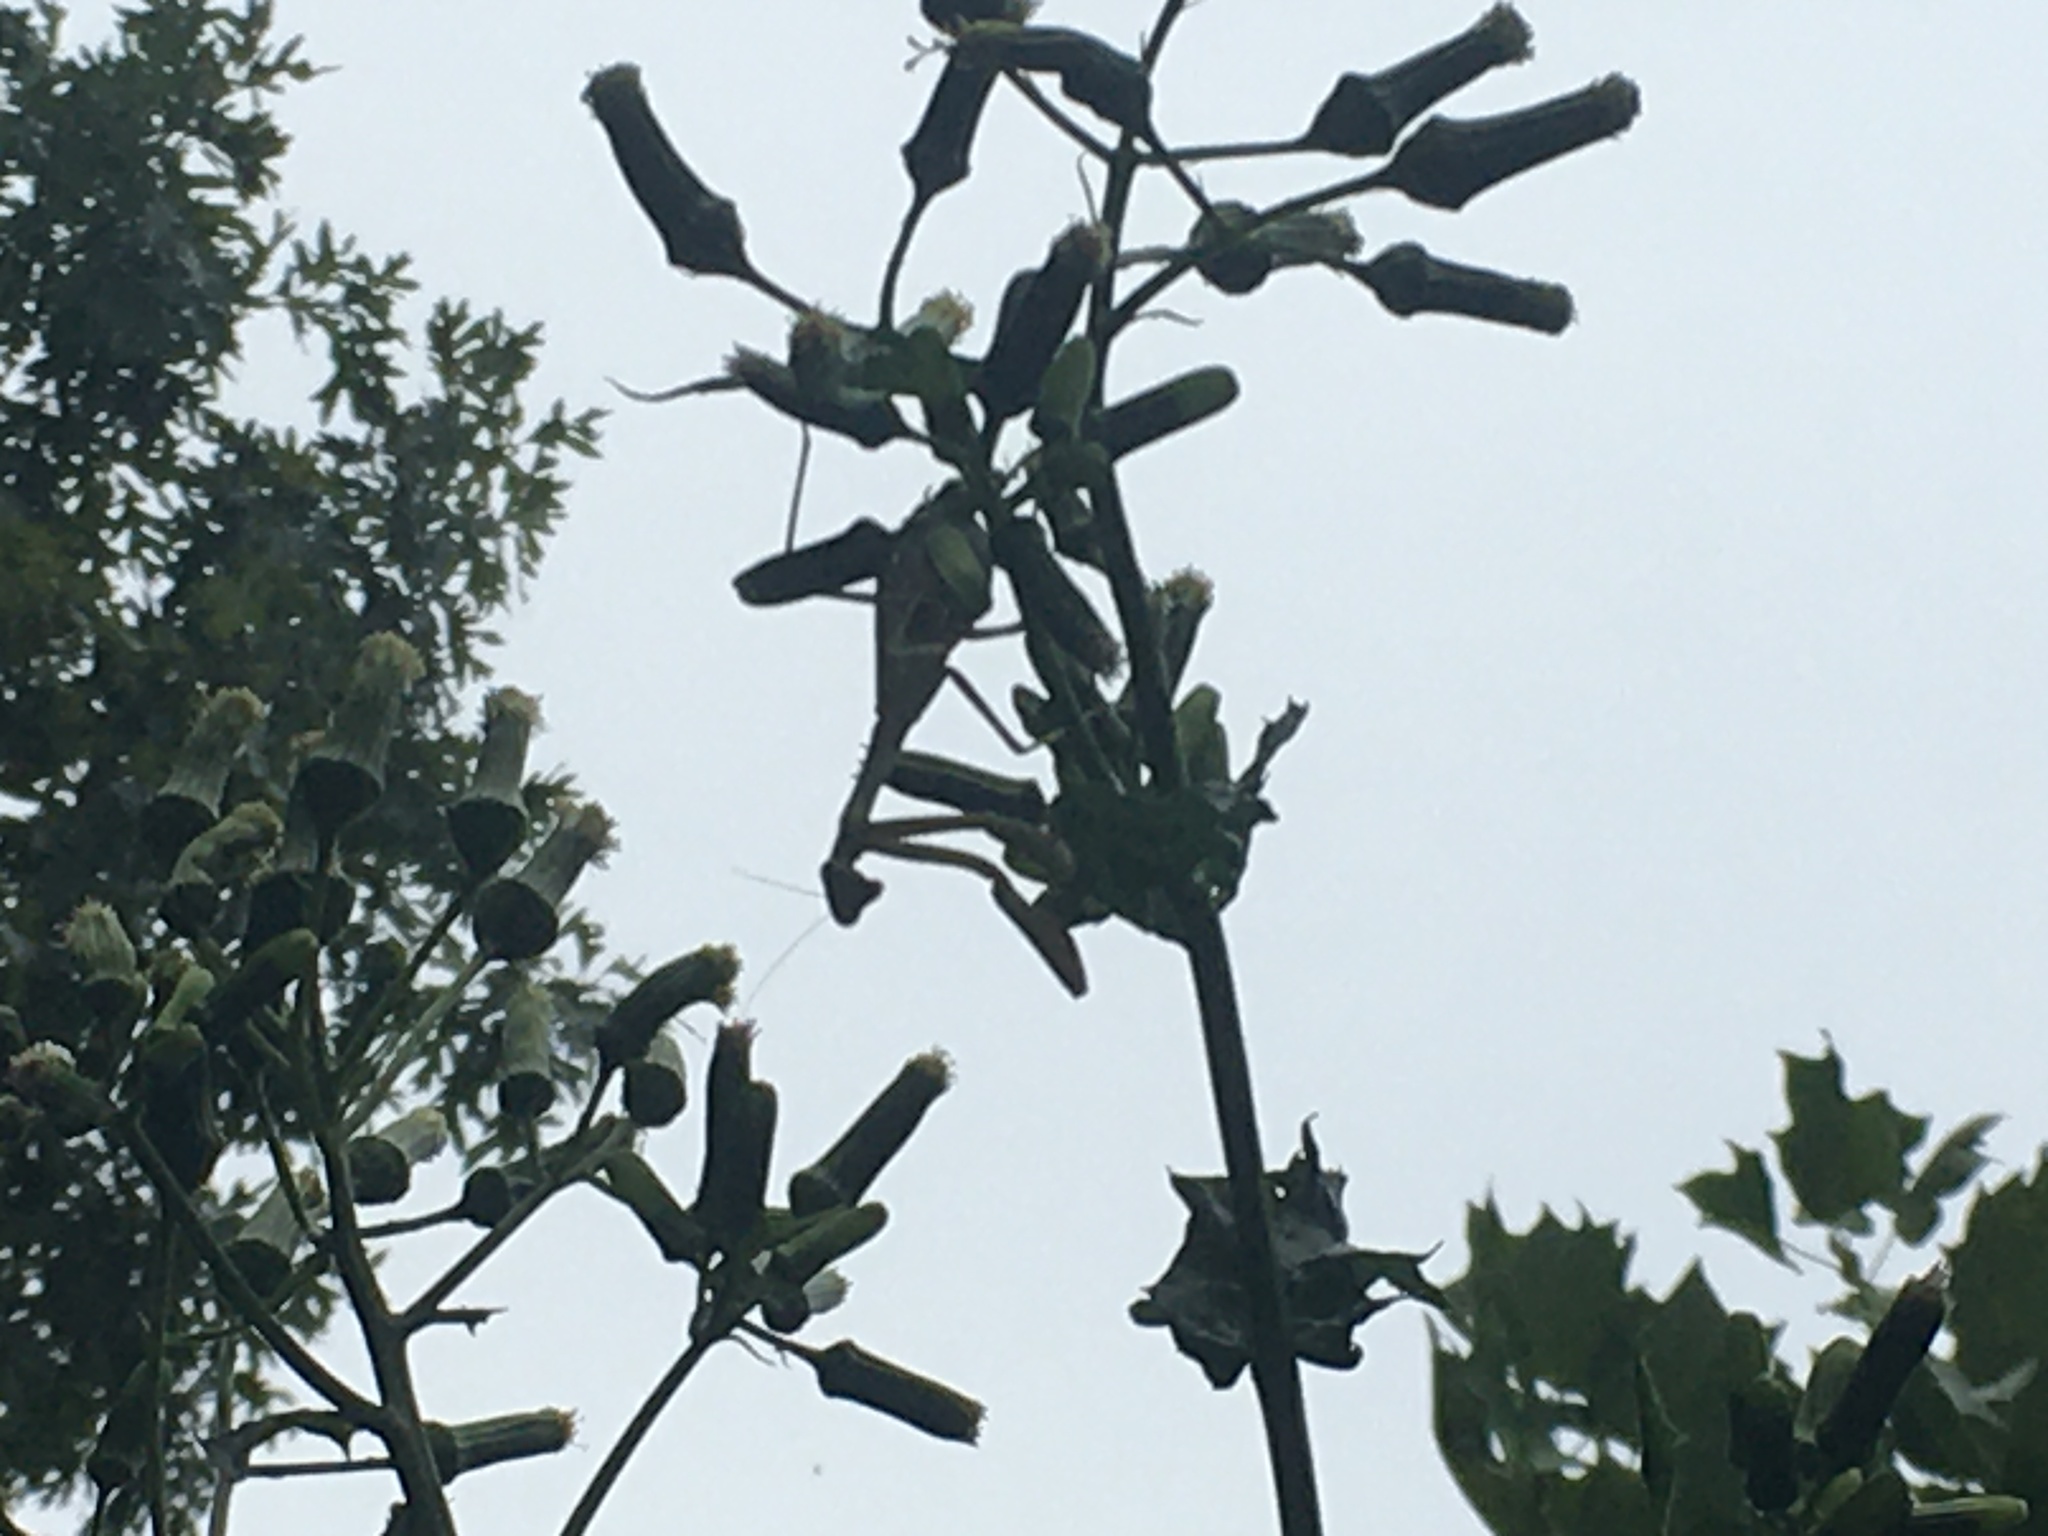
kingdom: Animalia
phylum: Arthropoda
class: Insecta
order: Mantodea
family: Mantidae
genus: Stagmomantis
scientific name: Stagmomantis carolina
